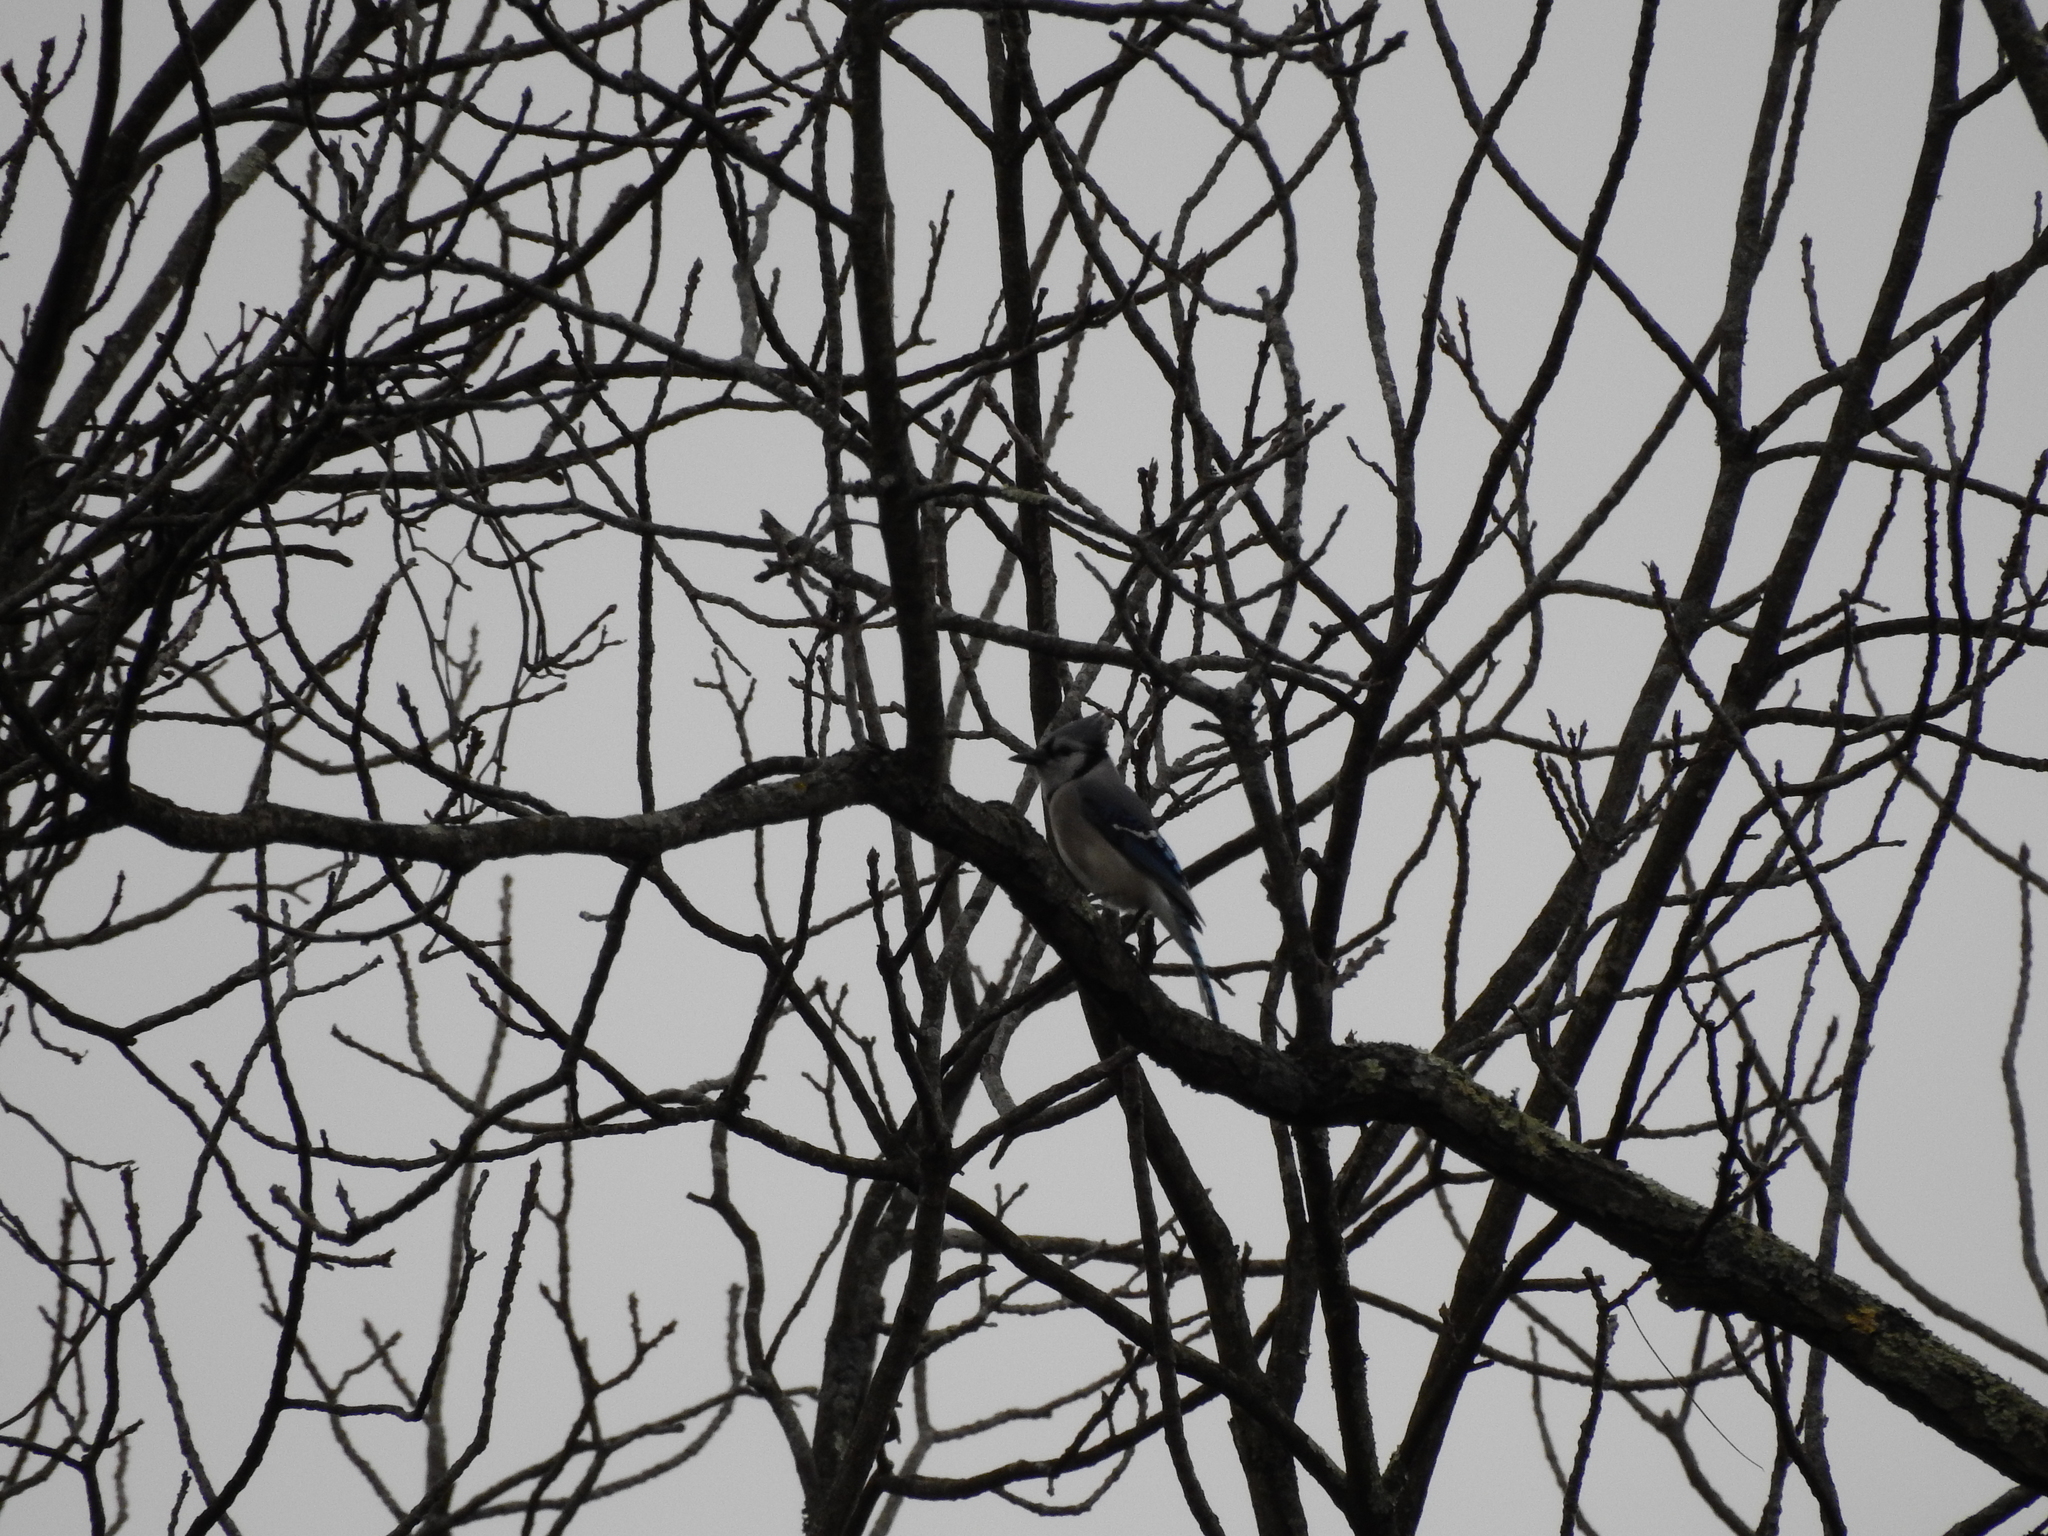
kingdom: Animalia
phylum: Chordata
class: Aves
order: Passeriformes
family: Corvidae
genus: Cyanocitta
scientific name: Cyanocitta cristata
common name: Blue jay
